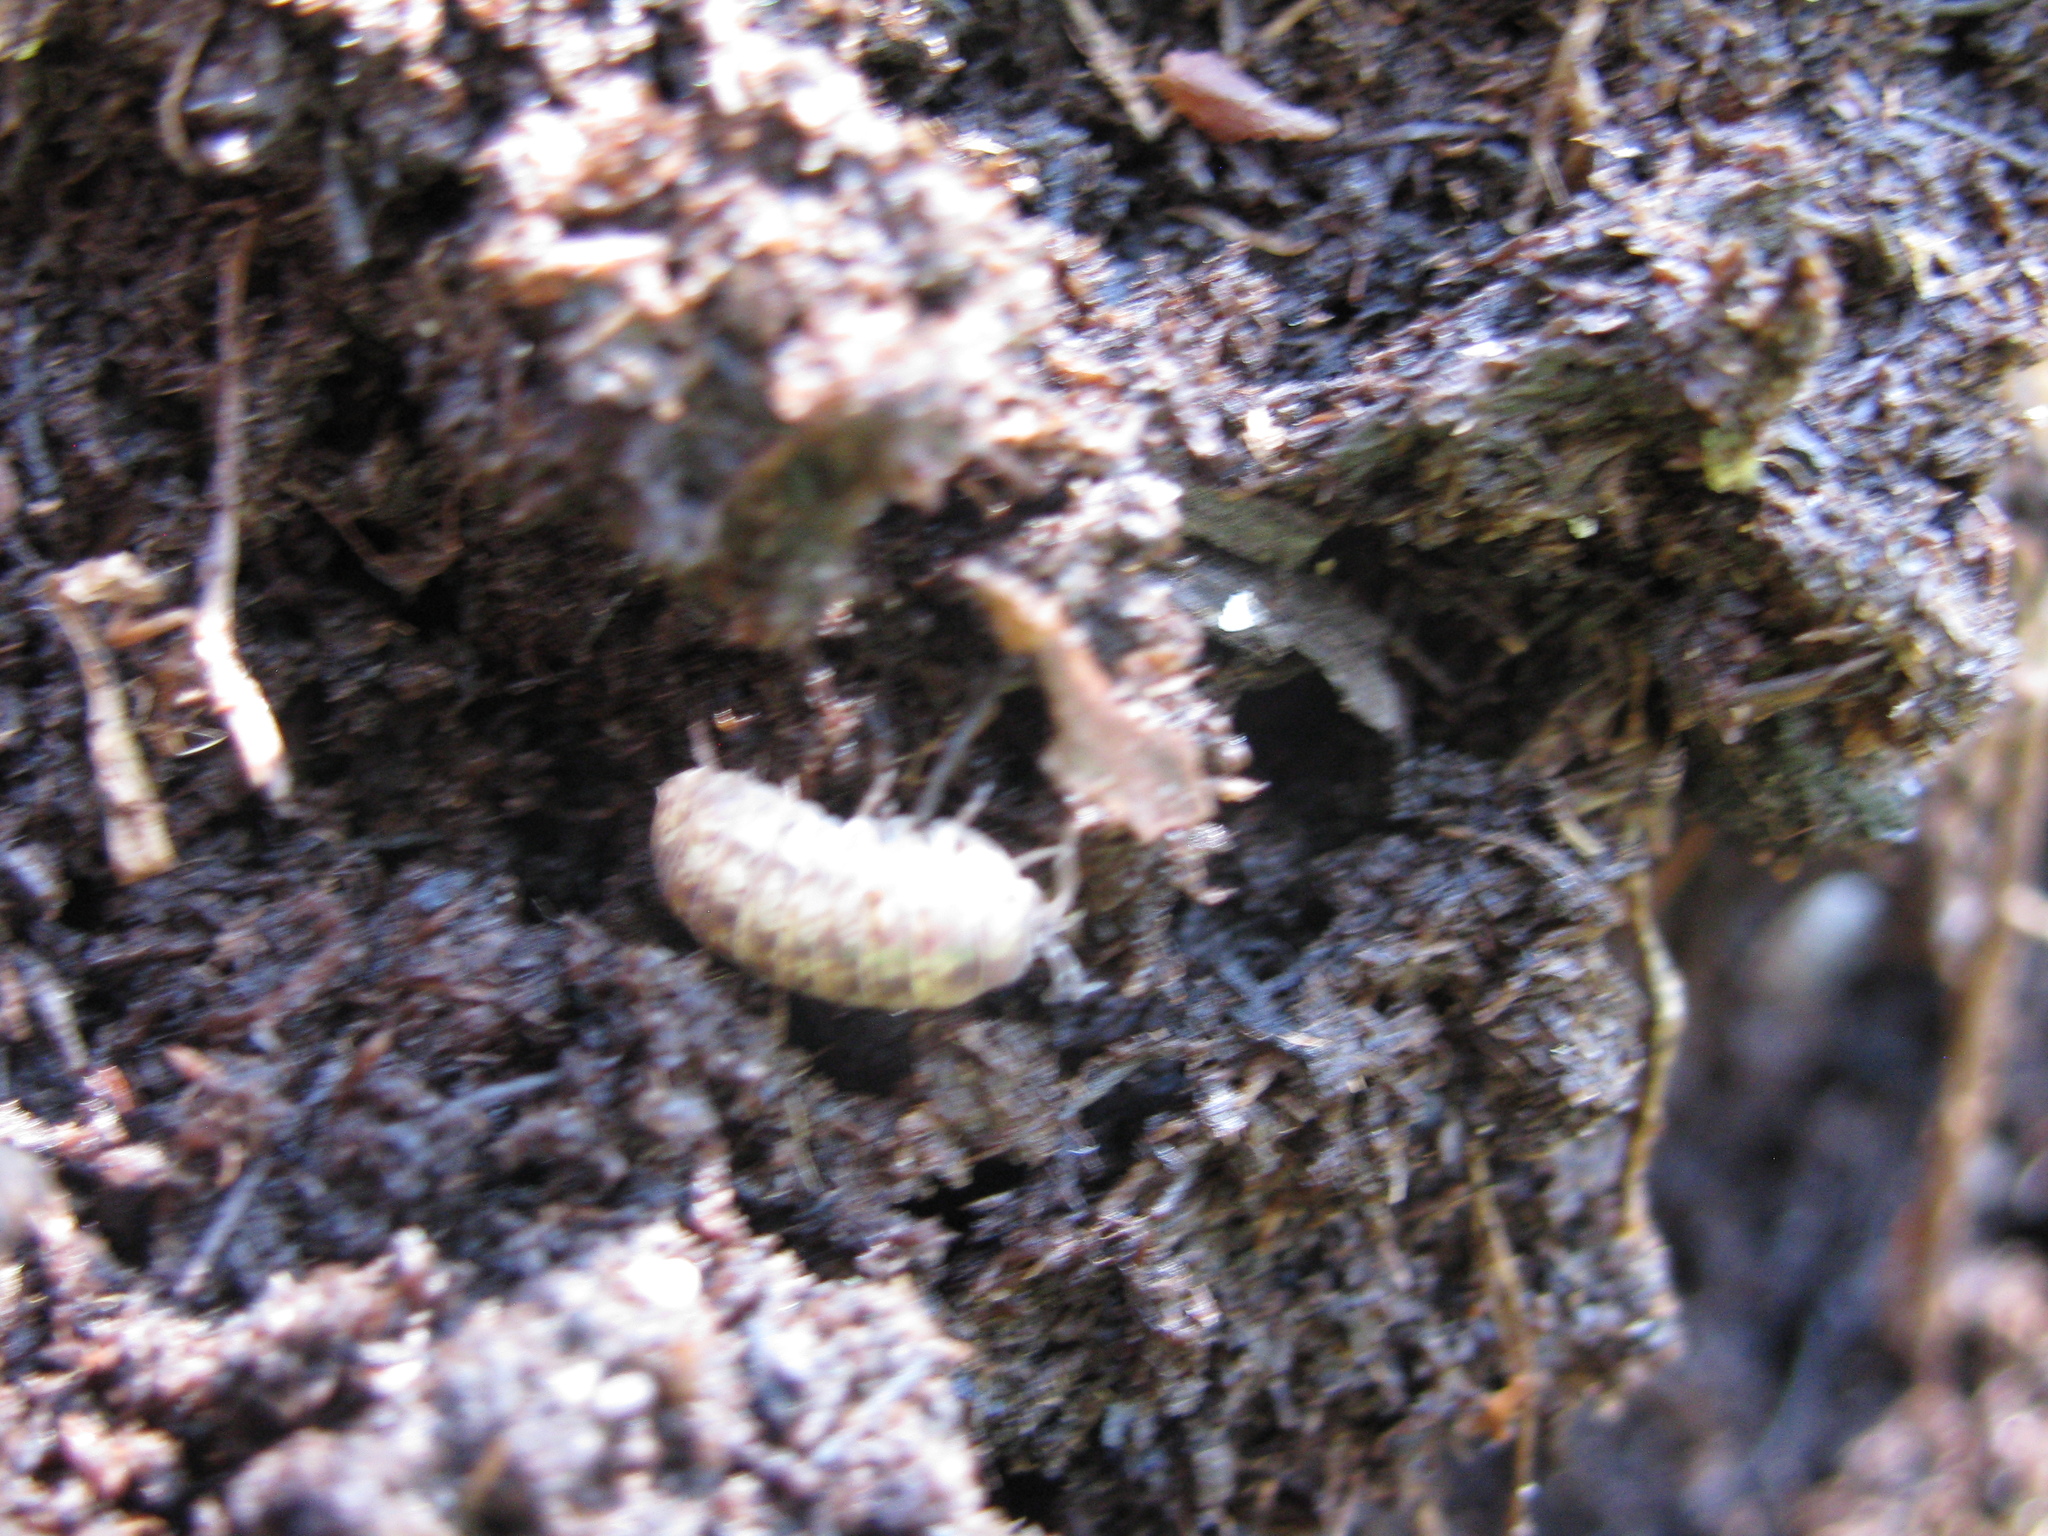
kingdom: Animalia
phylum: Arthropoda
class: Malacostraca
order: Isopoda
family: Armadillidiidae
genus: Armadillidium
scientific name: Armadillidium vulgare
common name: Common pill woodlouse
